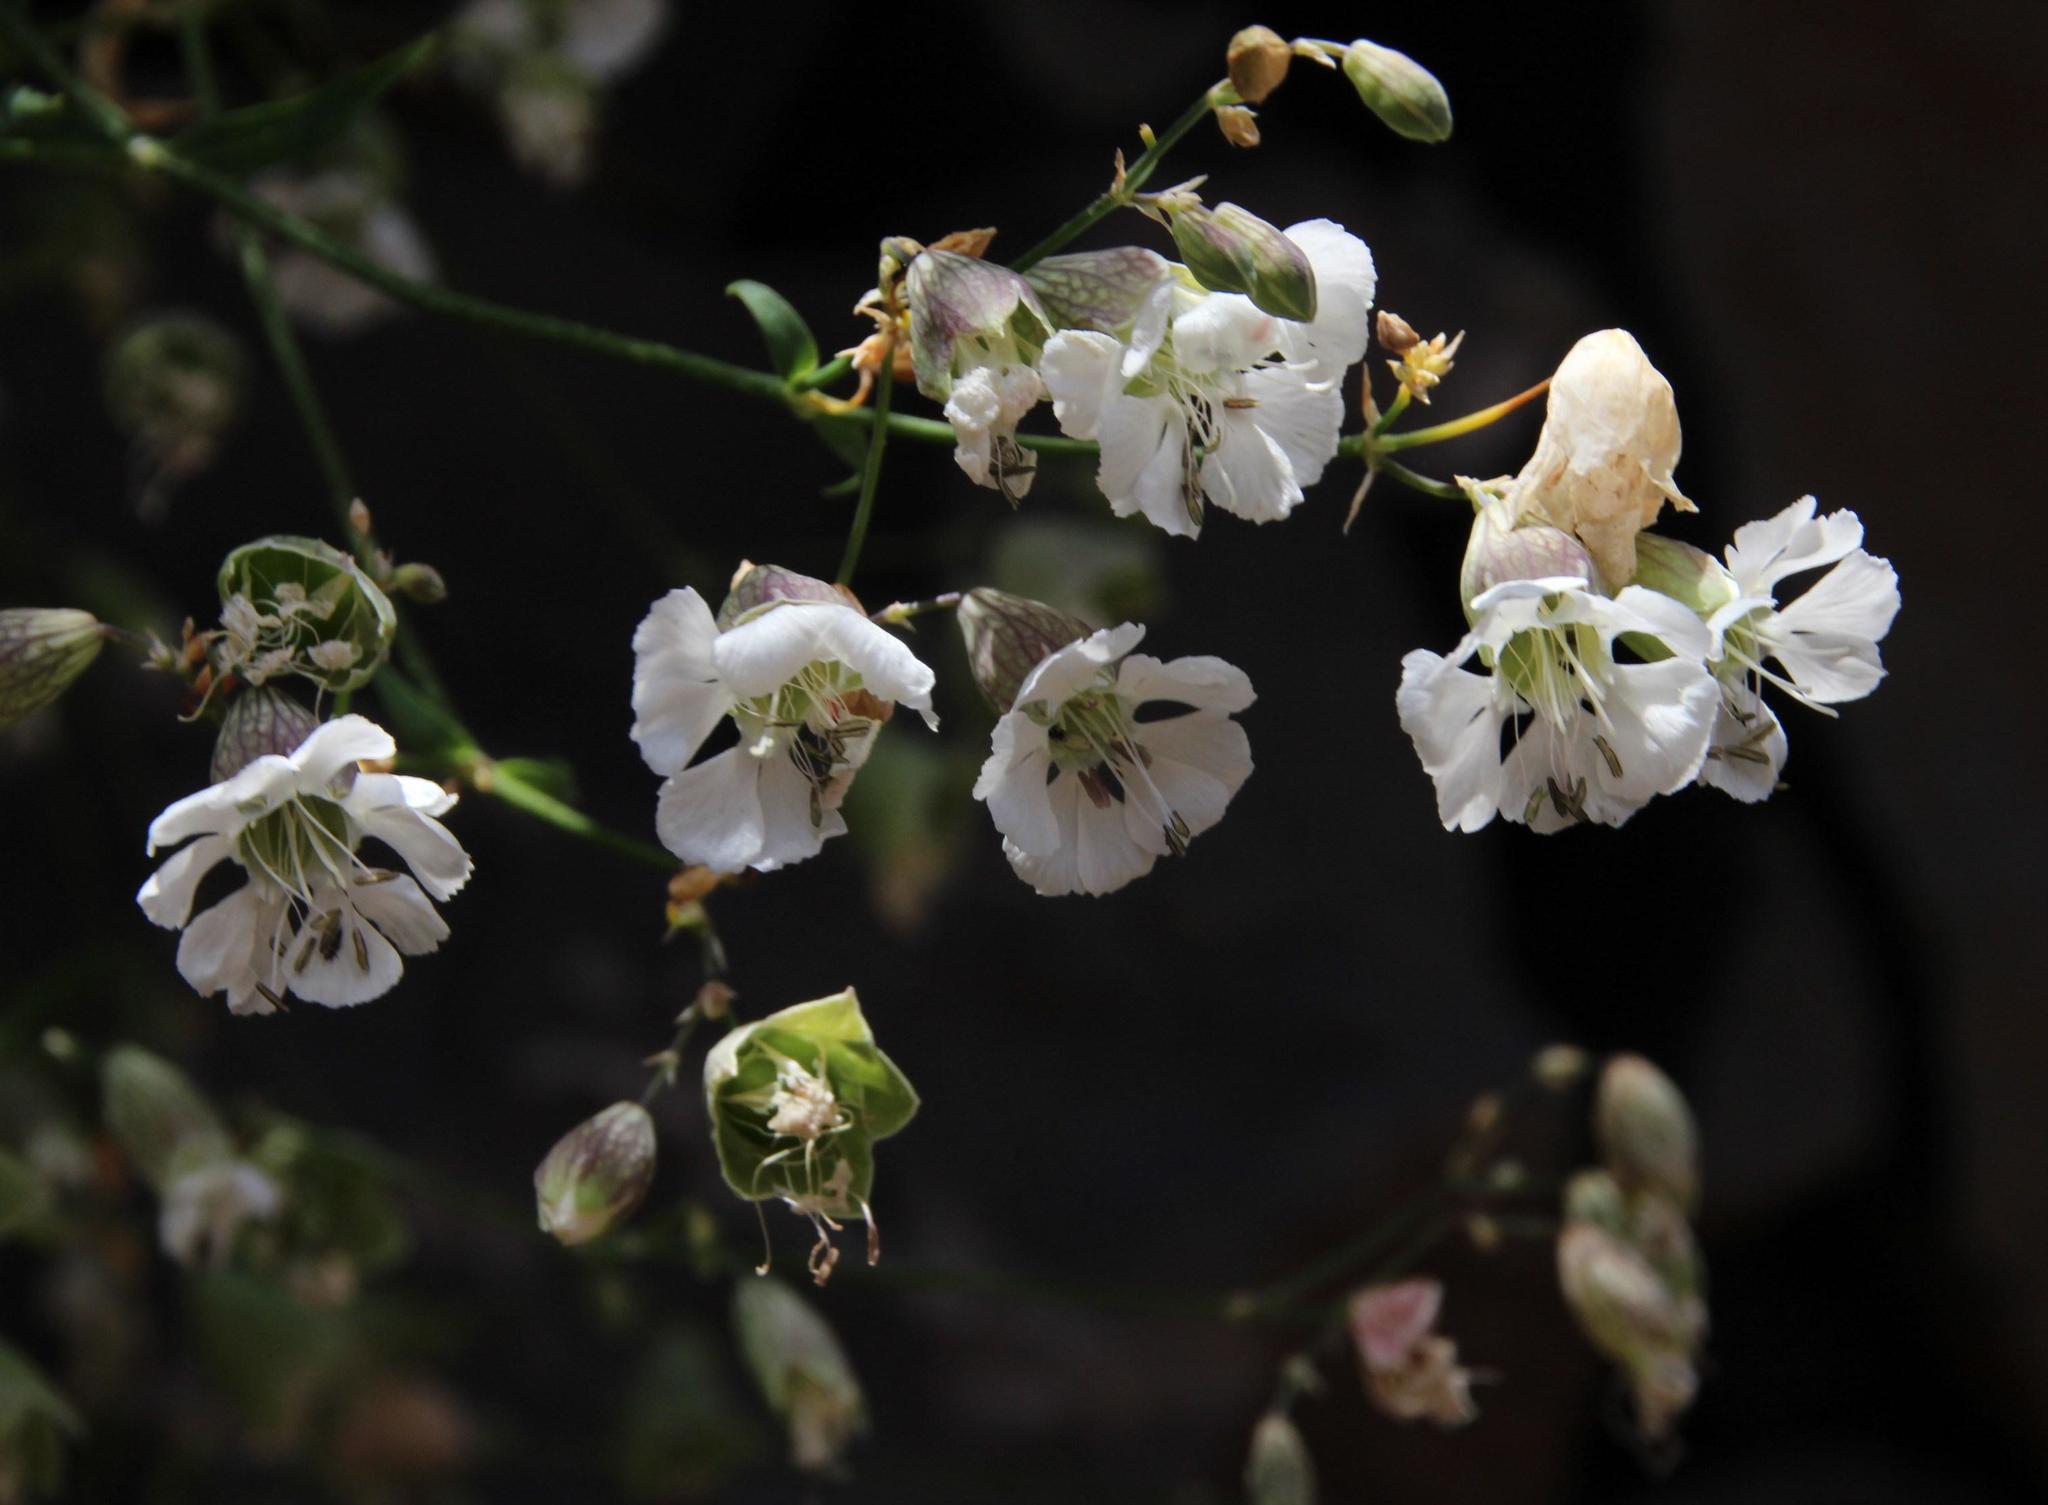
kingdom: Plantae
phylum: Tracheophyta
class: Magnoliopsida
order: Caryophyllales
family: Caryophyllaceae
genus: Silene
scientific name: Silene vulgaris
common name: Bladder campion
